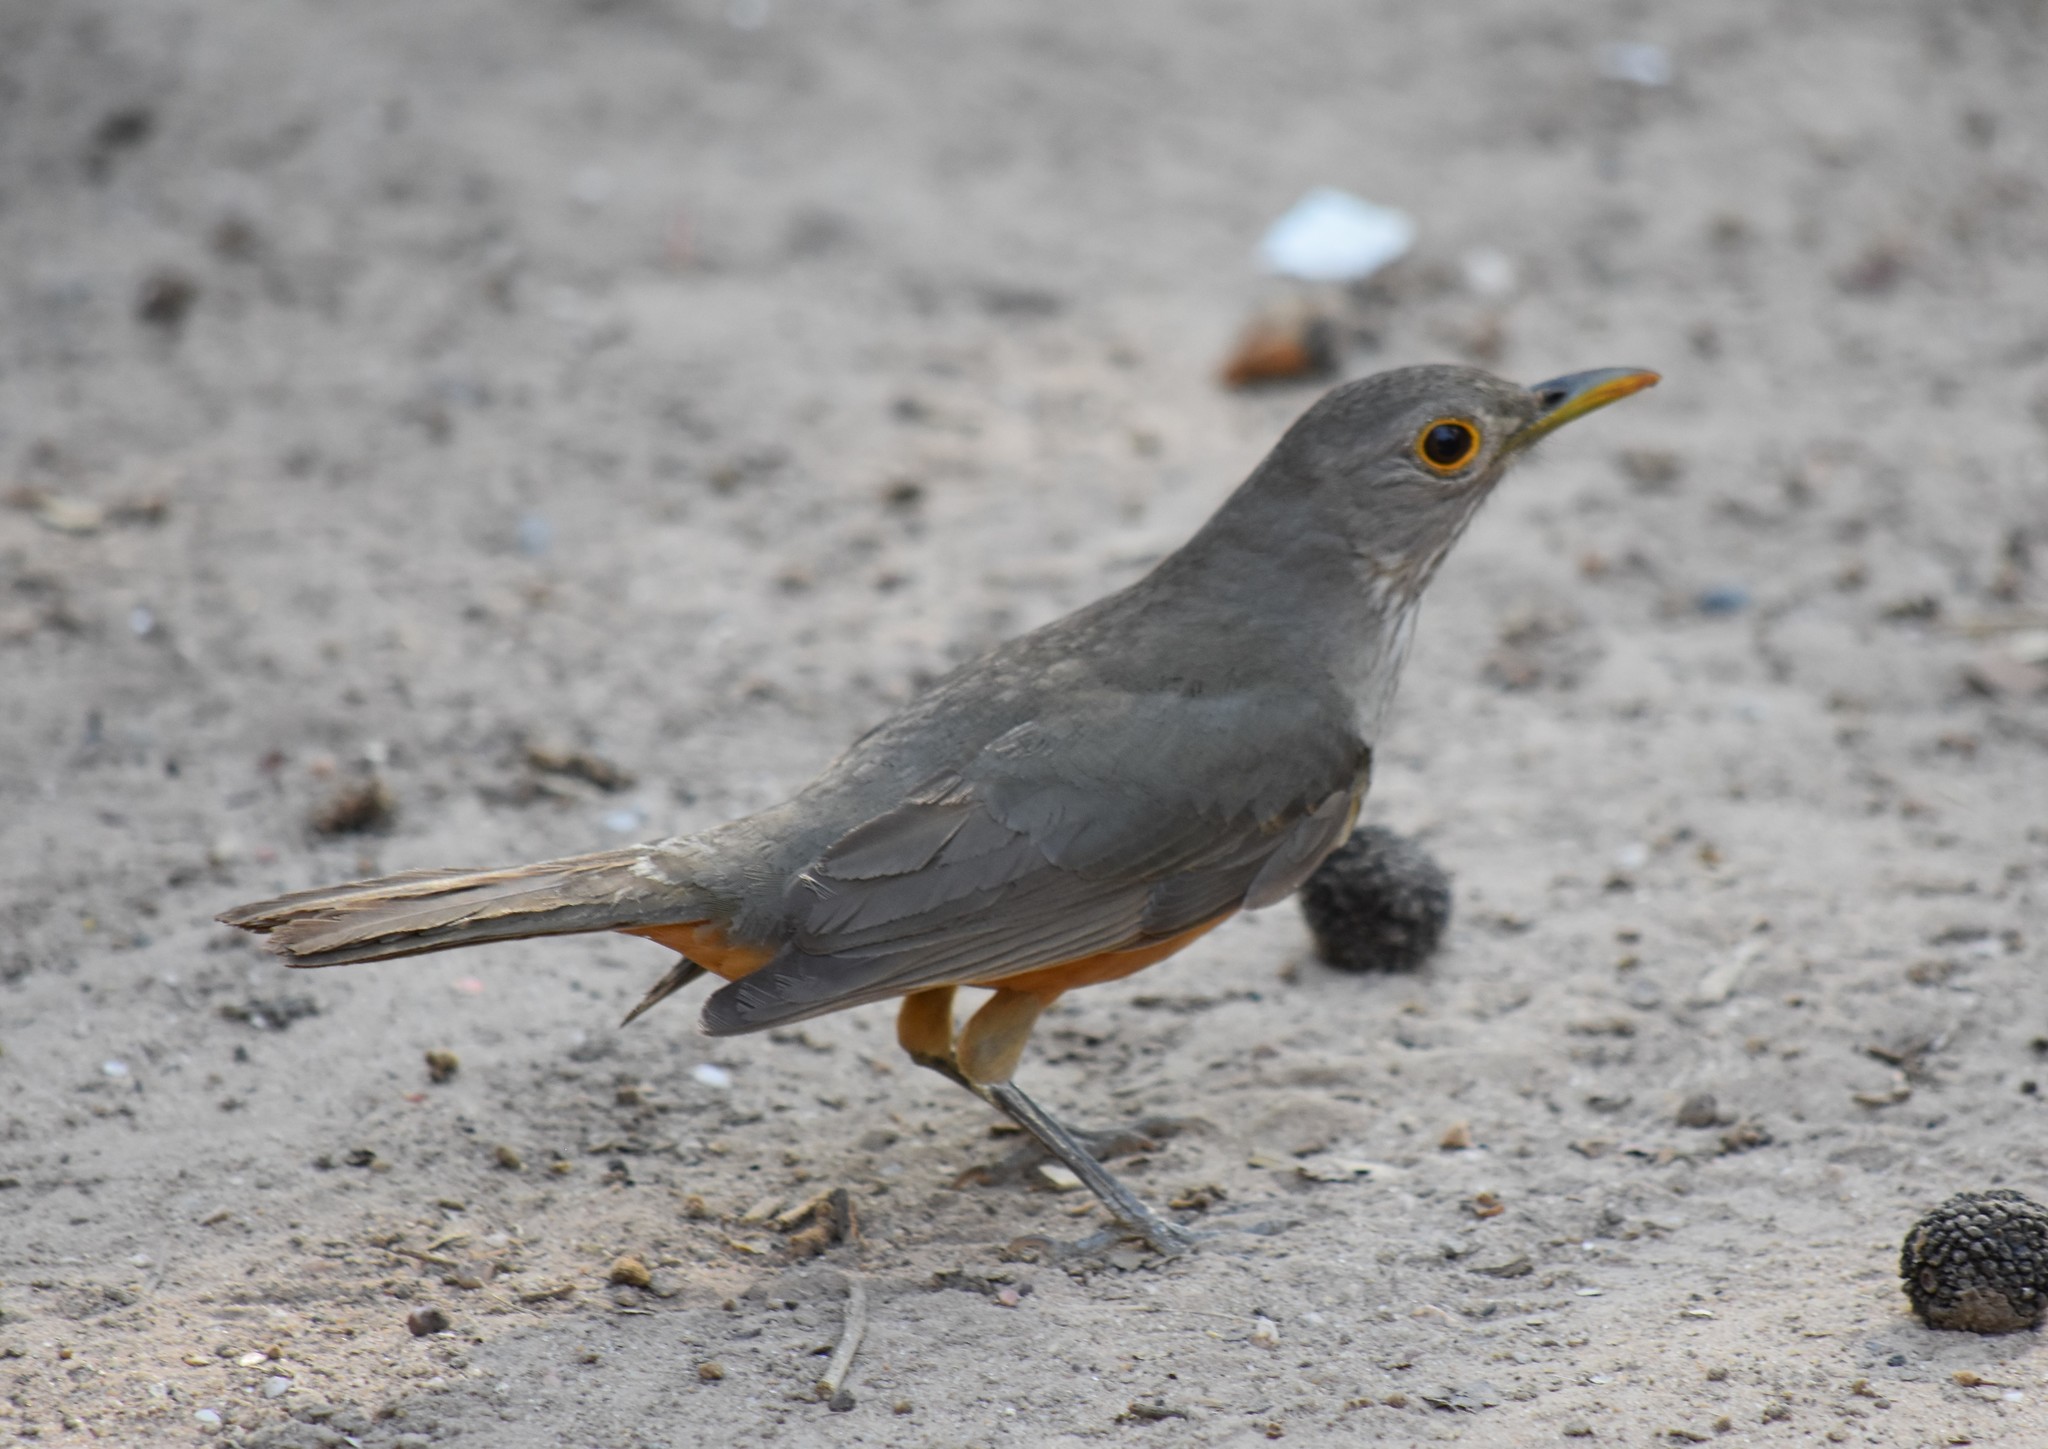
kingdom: Animalia
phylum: Chordata
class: Aves
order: Passeriformes
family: Turdidae
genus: Turdus
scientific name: Turdus rufiventris
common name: Rufous-bellied thrush
